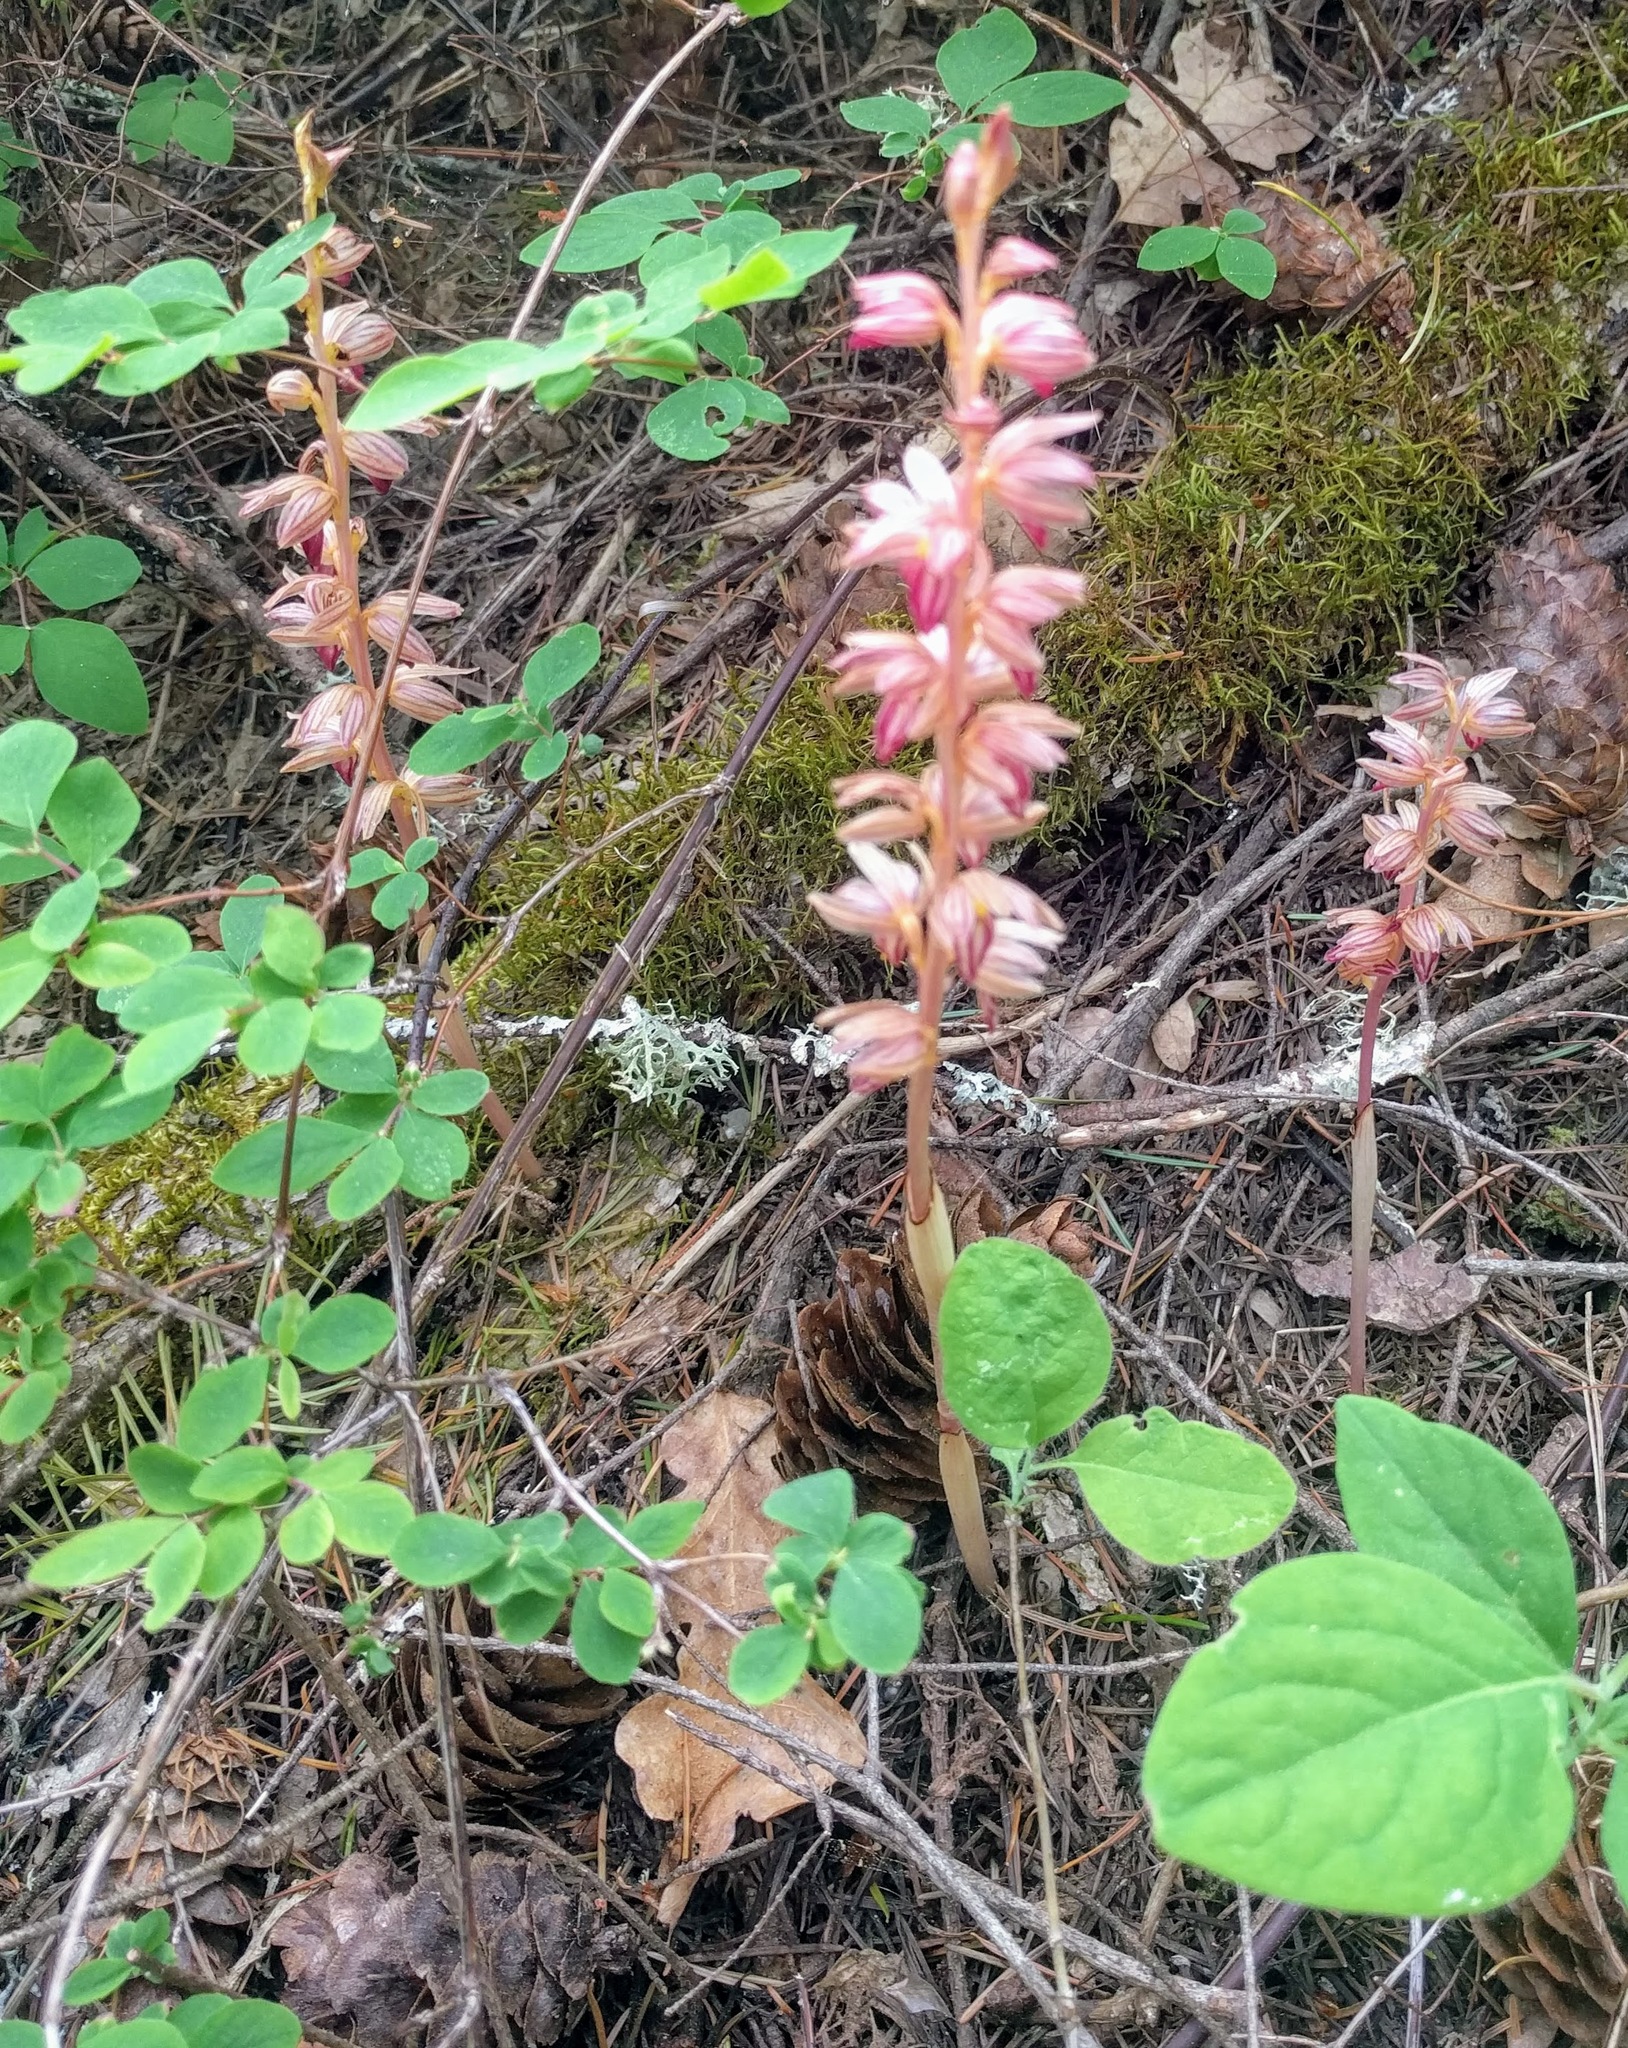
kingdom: Plantae
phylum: Tracheophyta
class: Liliopsida
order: Asparagales
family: Orchidaceae
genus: Corallorhiza
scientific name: Corallorhiza striata
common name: Hooded coralroot
